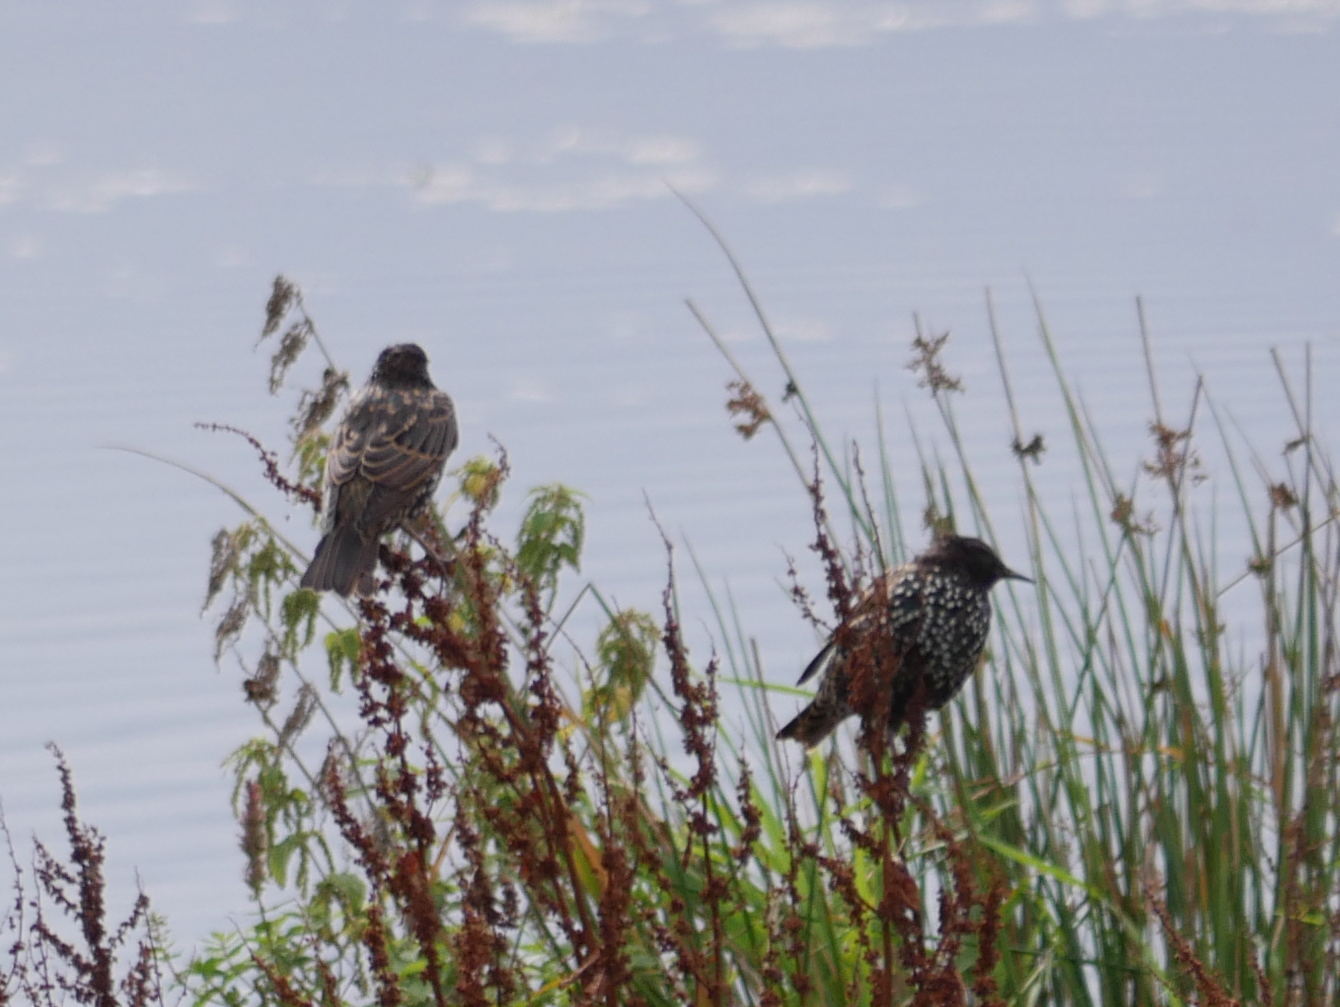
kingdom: Animalia
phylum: Chordata
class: Aves
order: Passeriformes
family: Sturnidae
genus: Sturnus
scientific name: Sturnus vulgaris
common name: Common starling
